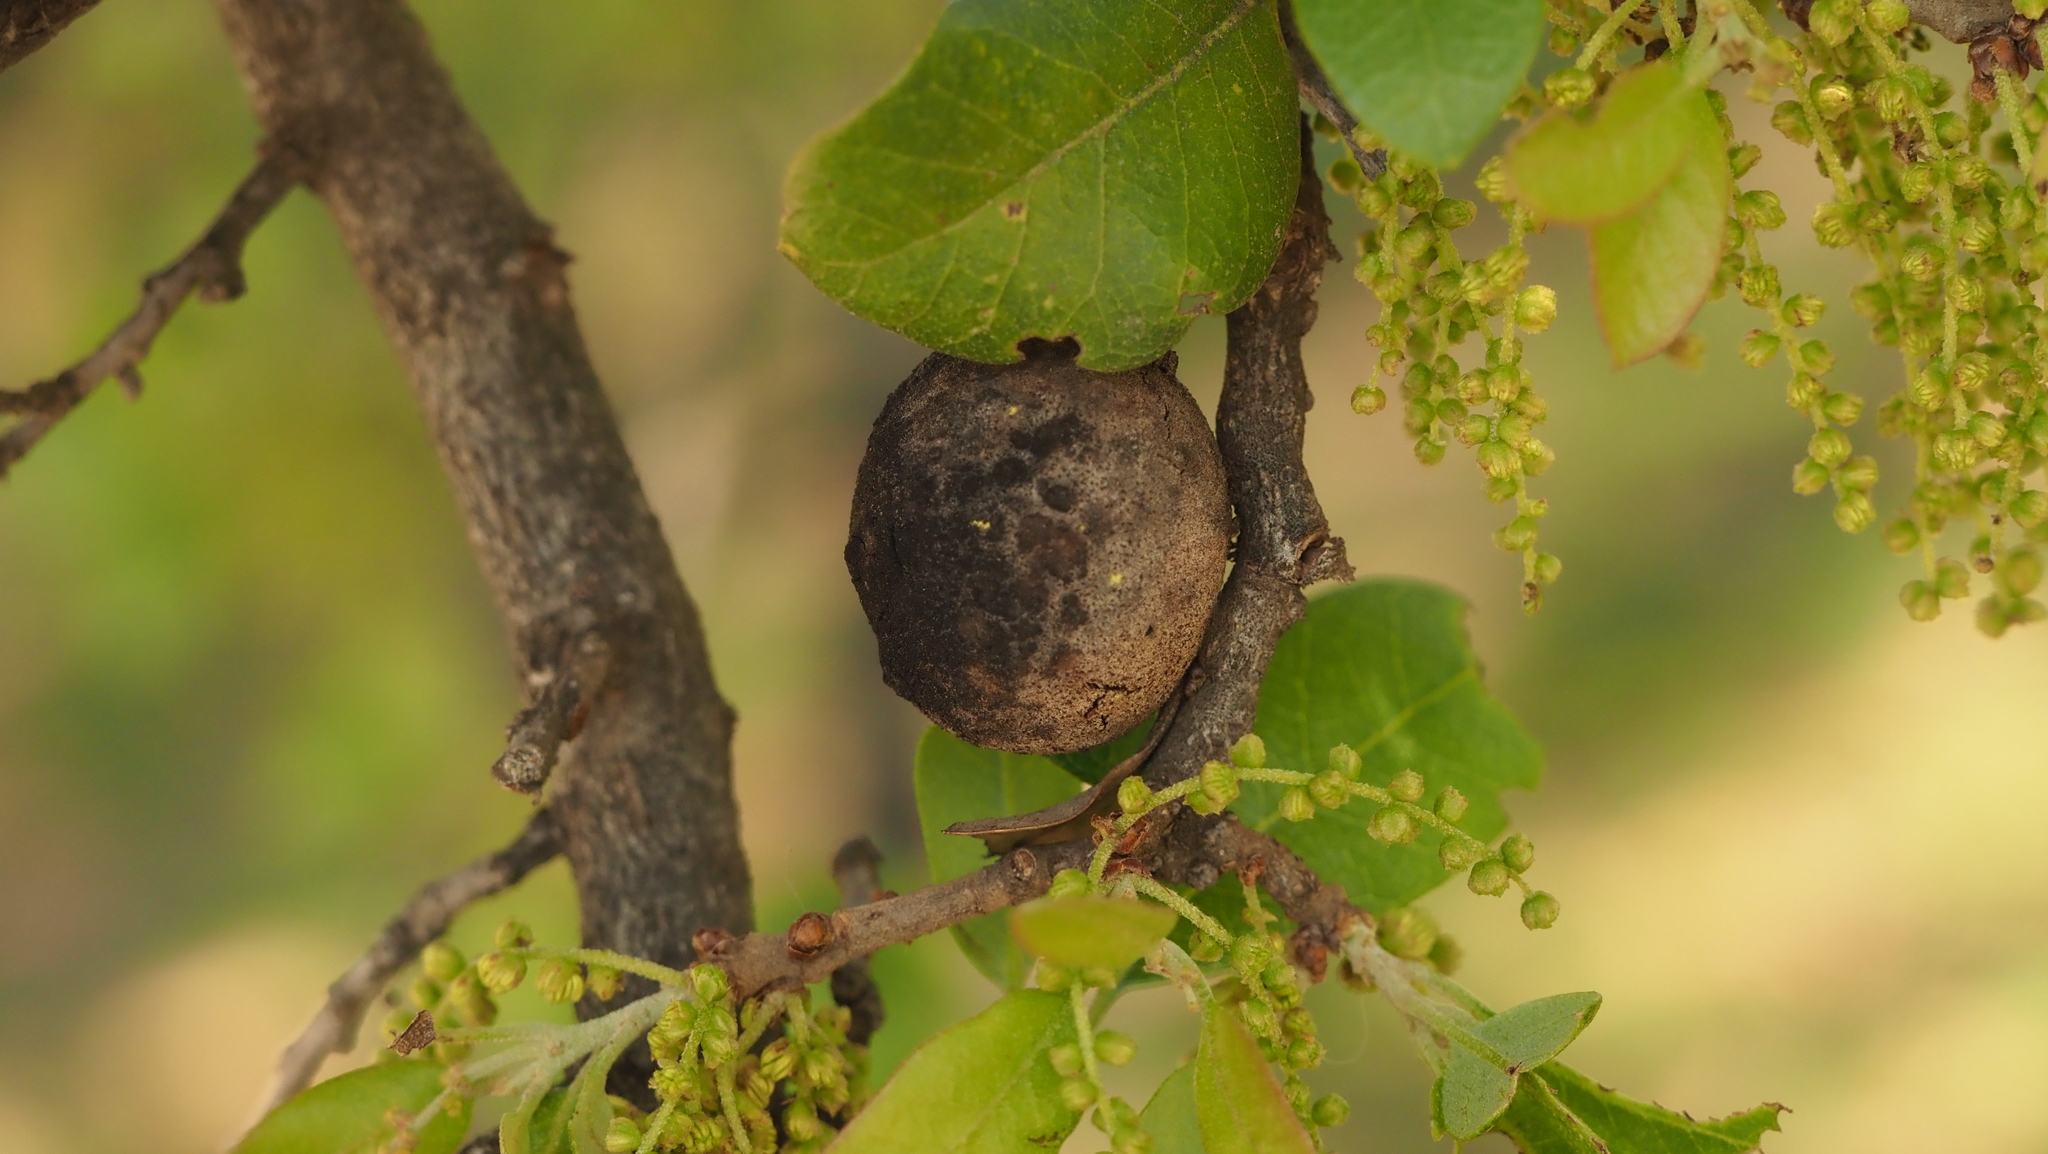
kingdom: Animalia
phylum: Arthropoda
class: Insecta
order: Hymenoptera
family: Cynipidae
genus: Disholcaspis
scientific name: Disholcaspis
